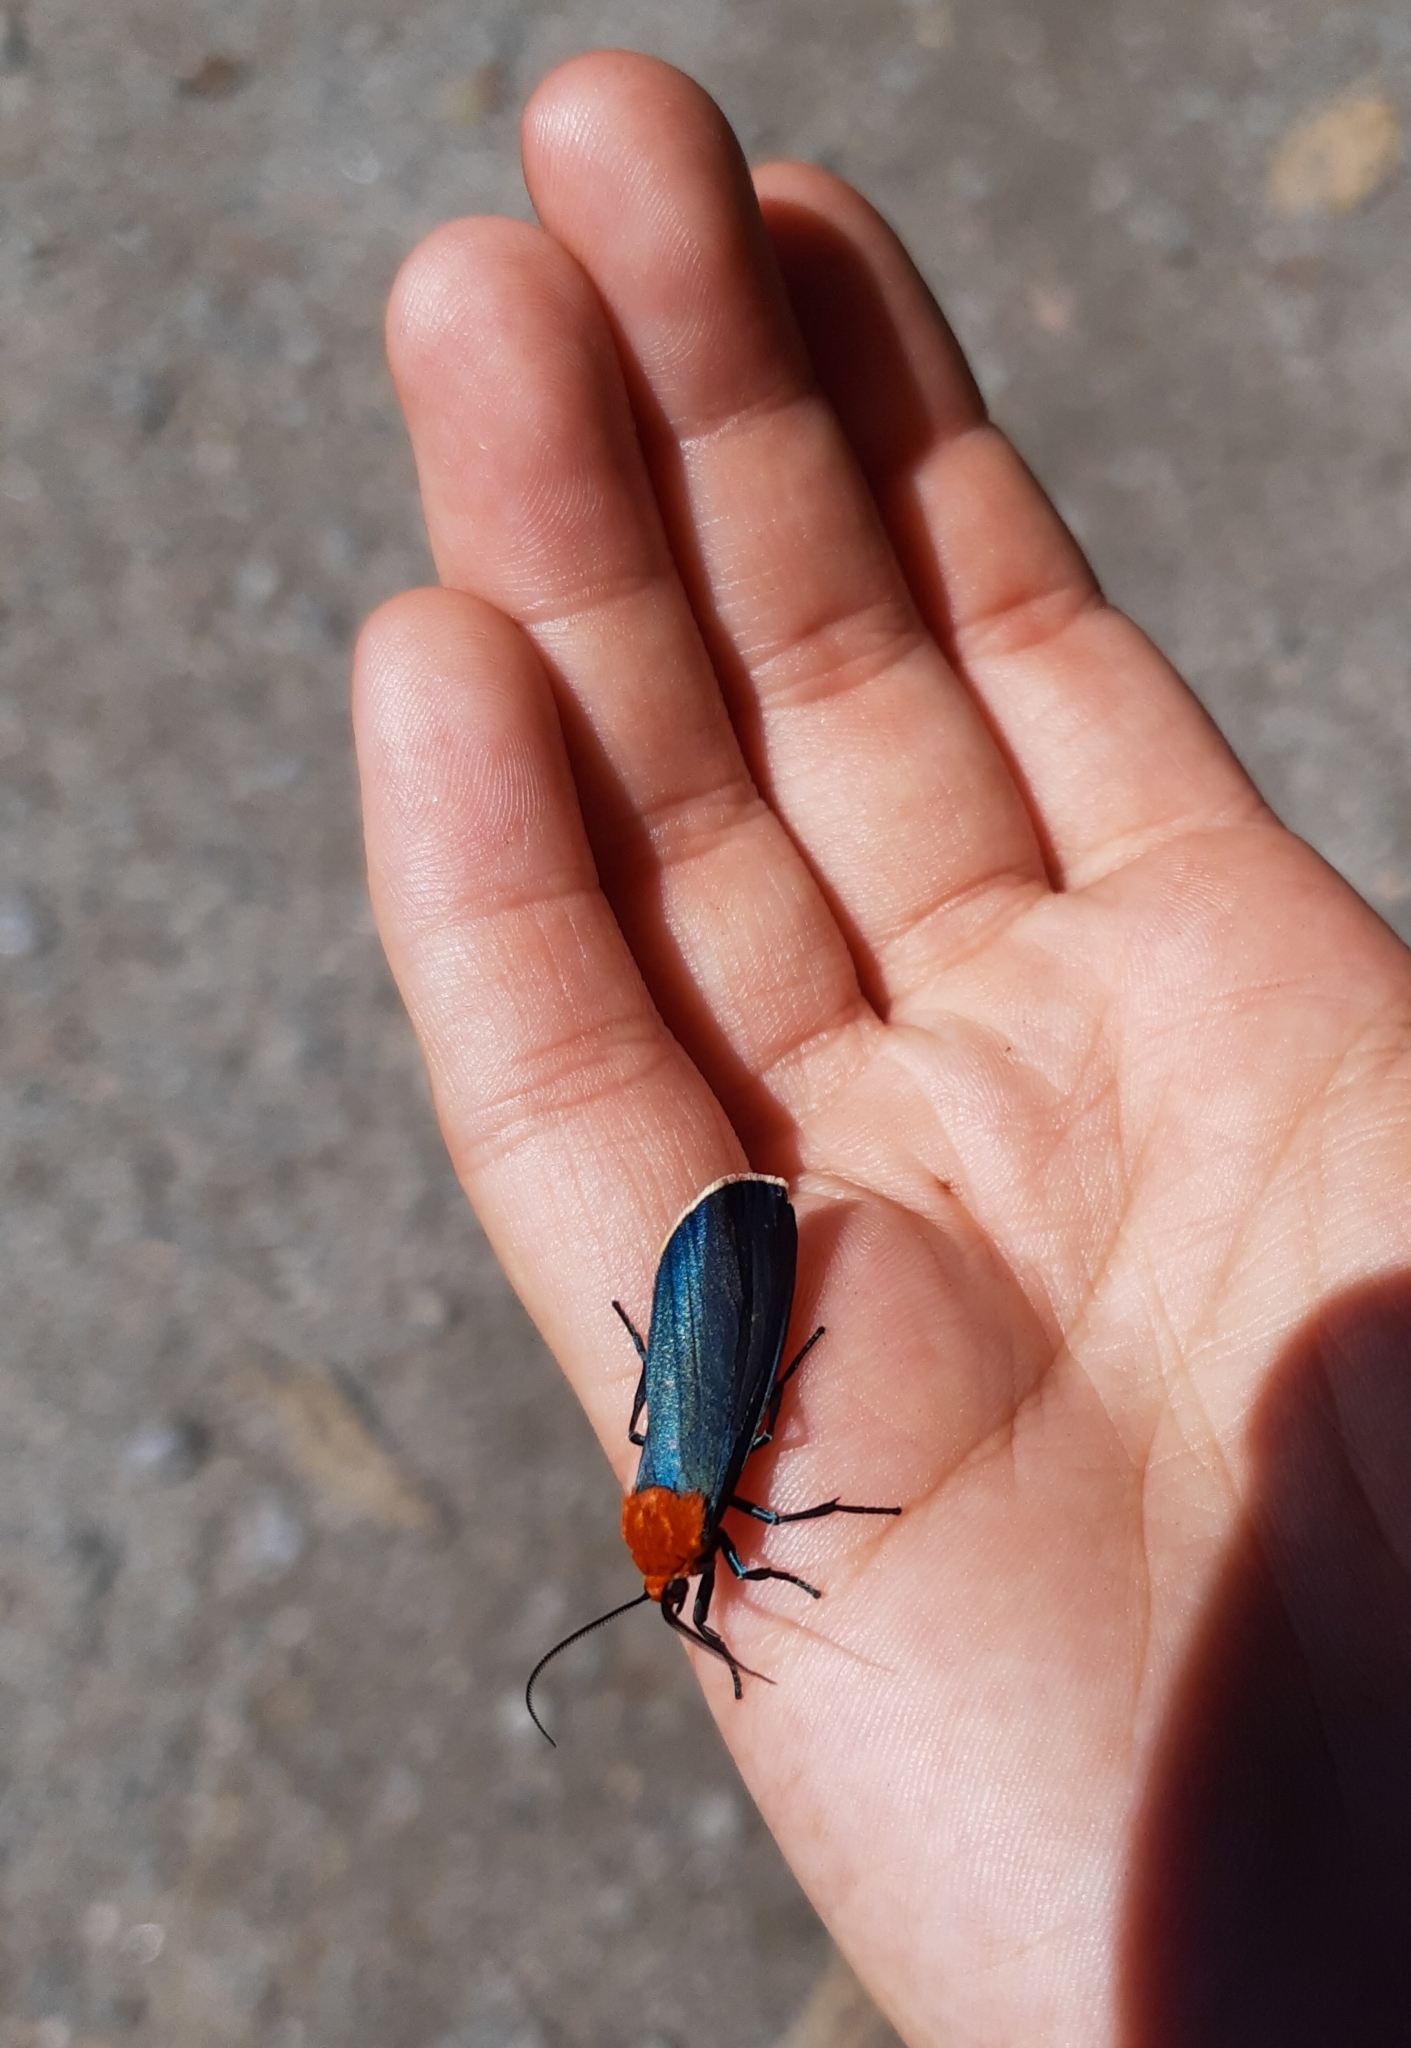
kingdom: Animalia
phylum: Arthropoda
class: Insecta
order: Lepidoptera
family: Erebidae
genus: Apistosia
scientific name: Apistosia judas
